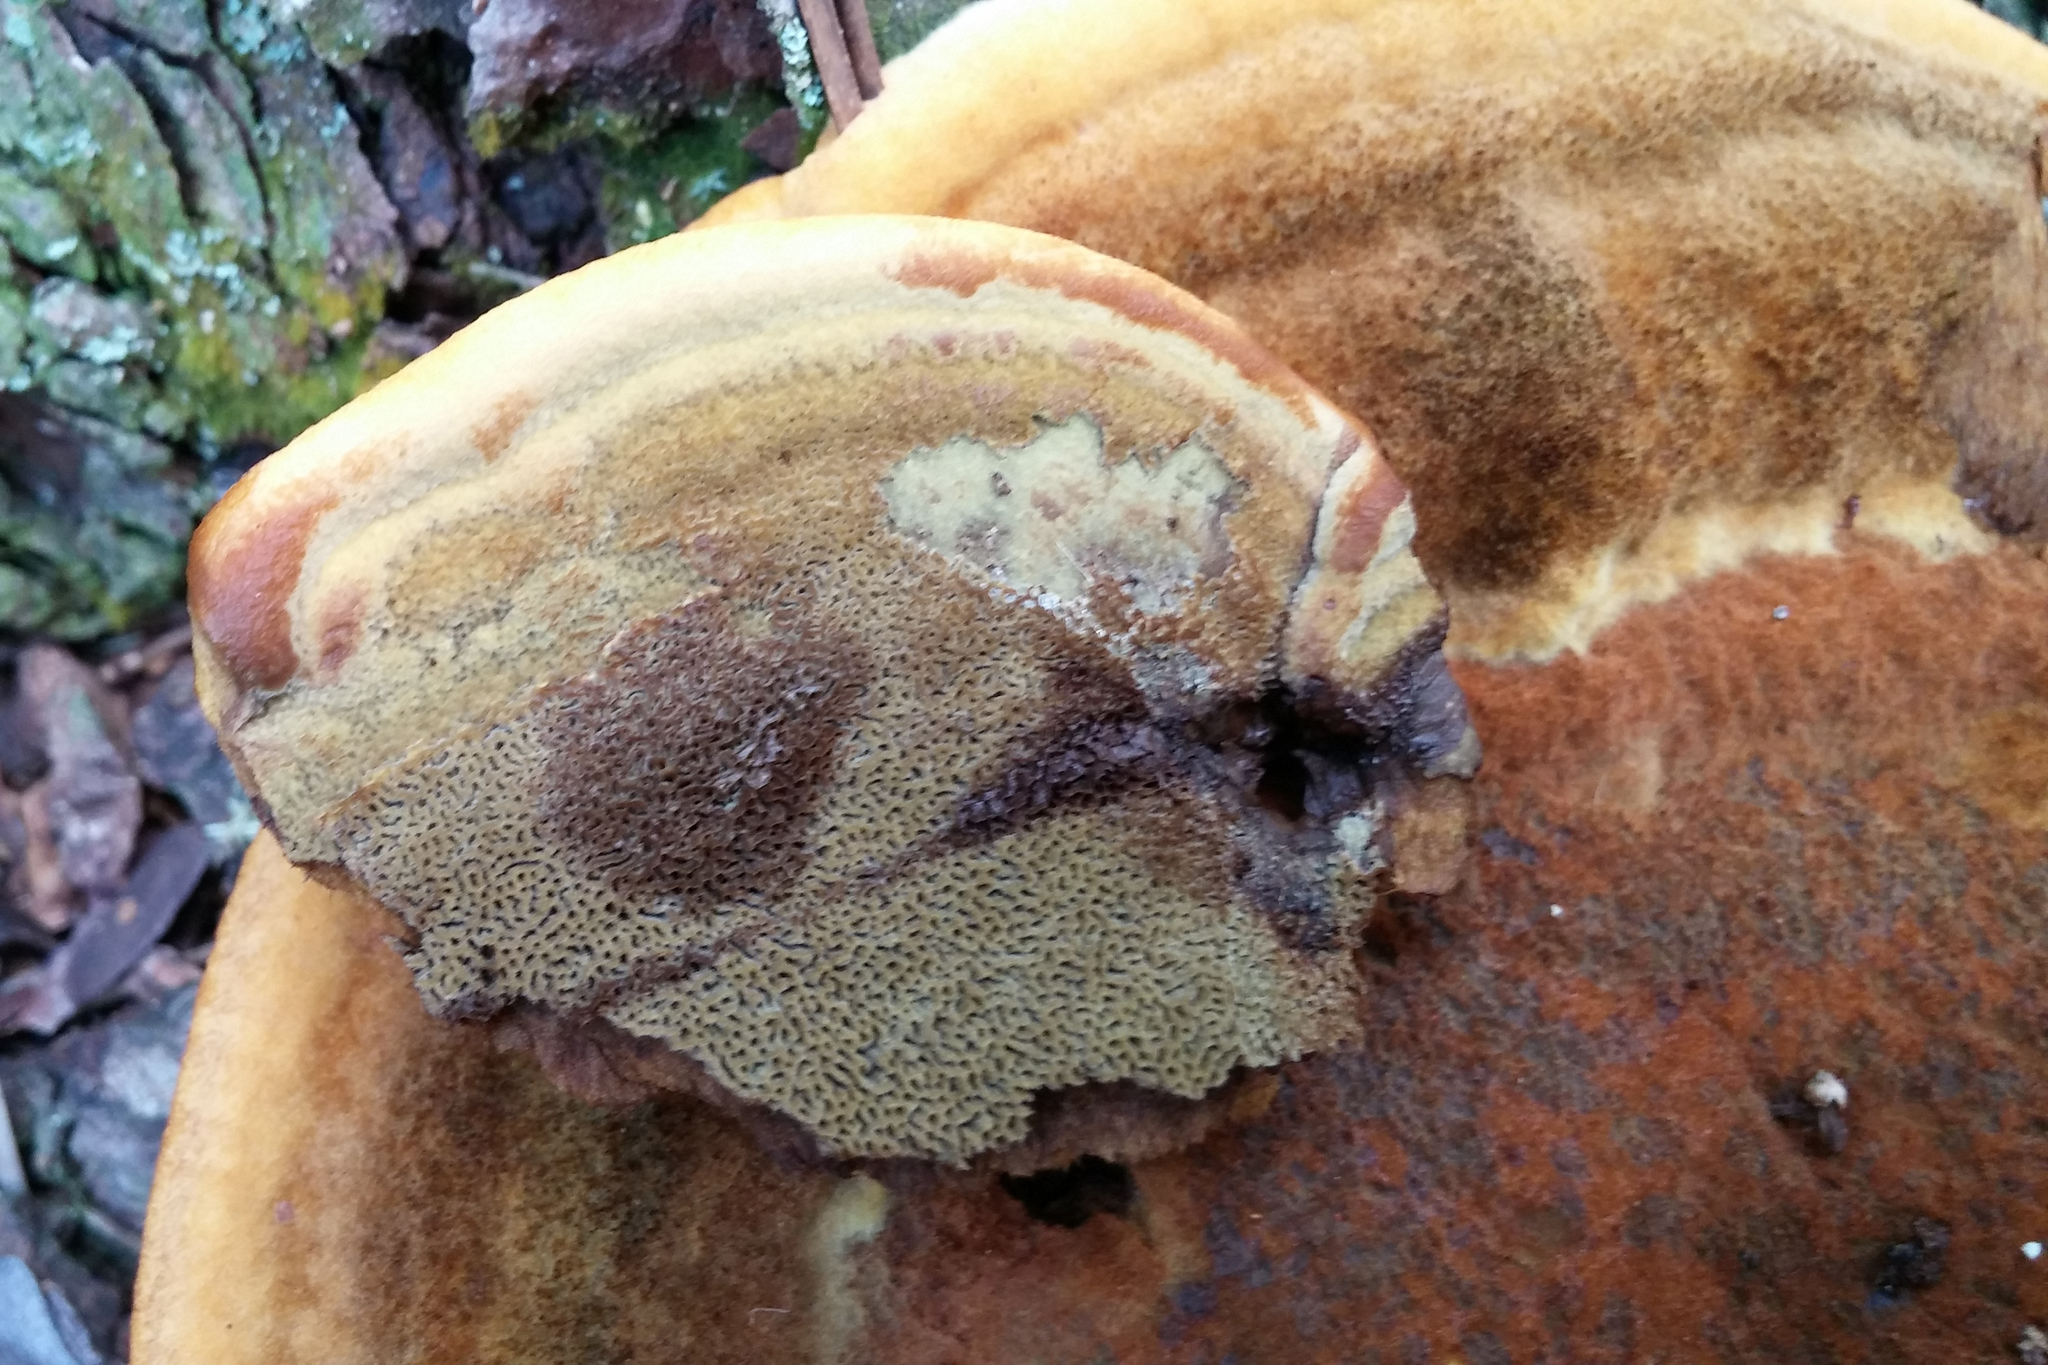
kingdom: Fungi
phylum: Basidiomycota
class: Agaricomycetes
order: Polyporales
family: Laetiporaceae
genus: Phaeolus
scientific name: Phaeolus schweinitzii
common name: Dyer's mazegill
